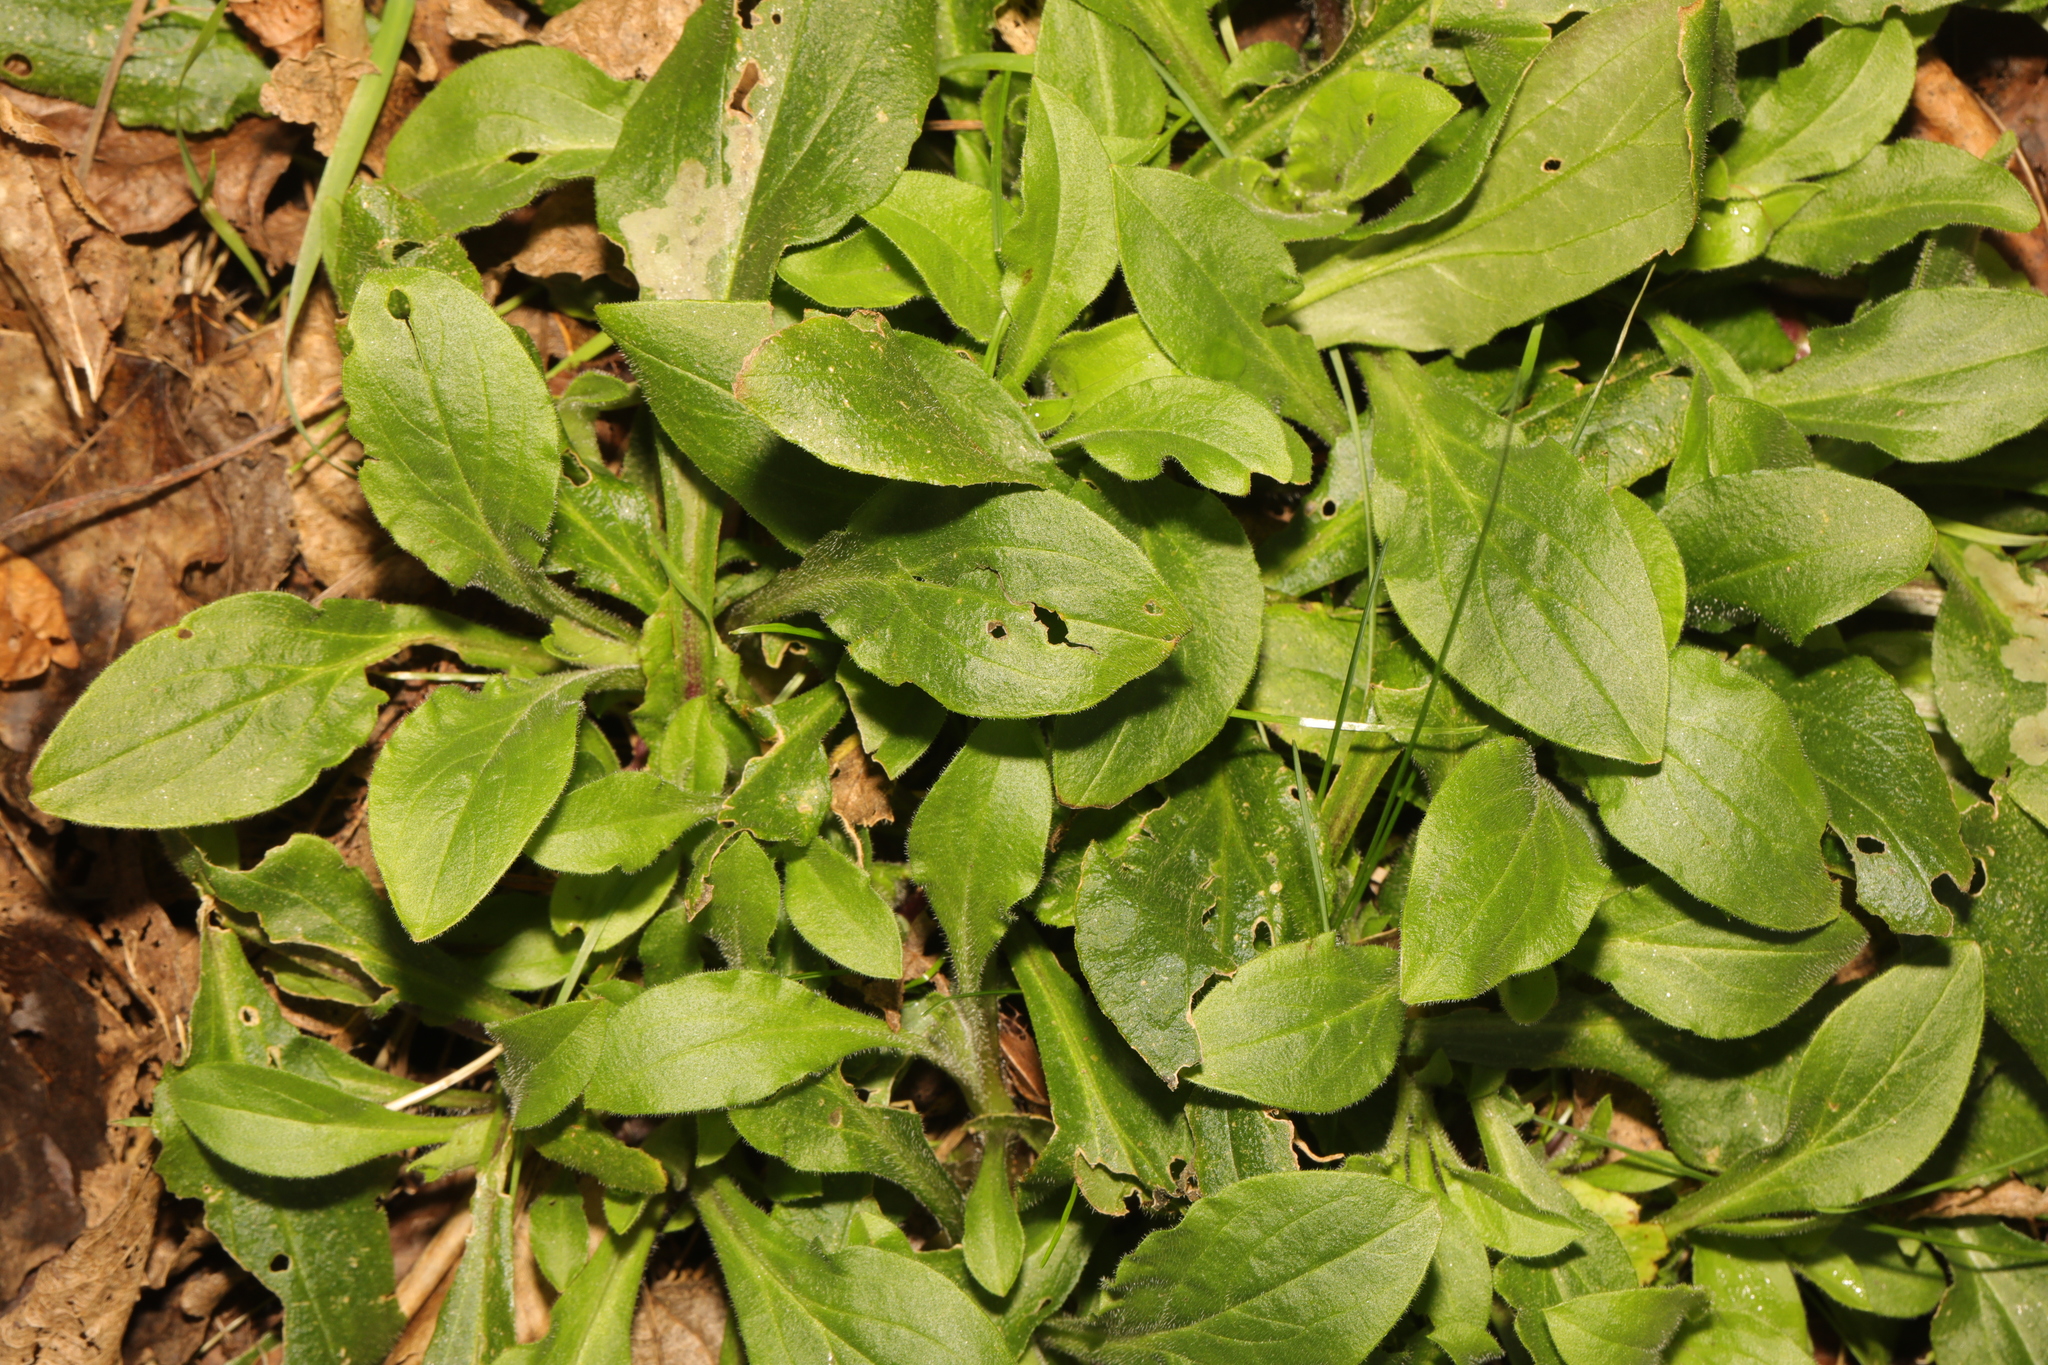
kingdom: Plantae
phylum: Tracheophyta
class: Magnoliopsida
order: Caryophyllales
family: Caryophyllaceae
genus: Silene
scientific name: Silene dioica
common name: Red campion
